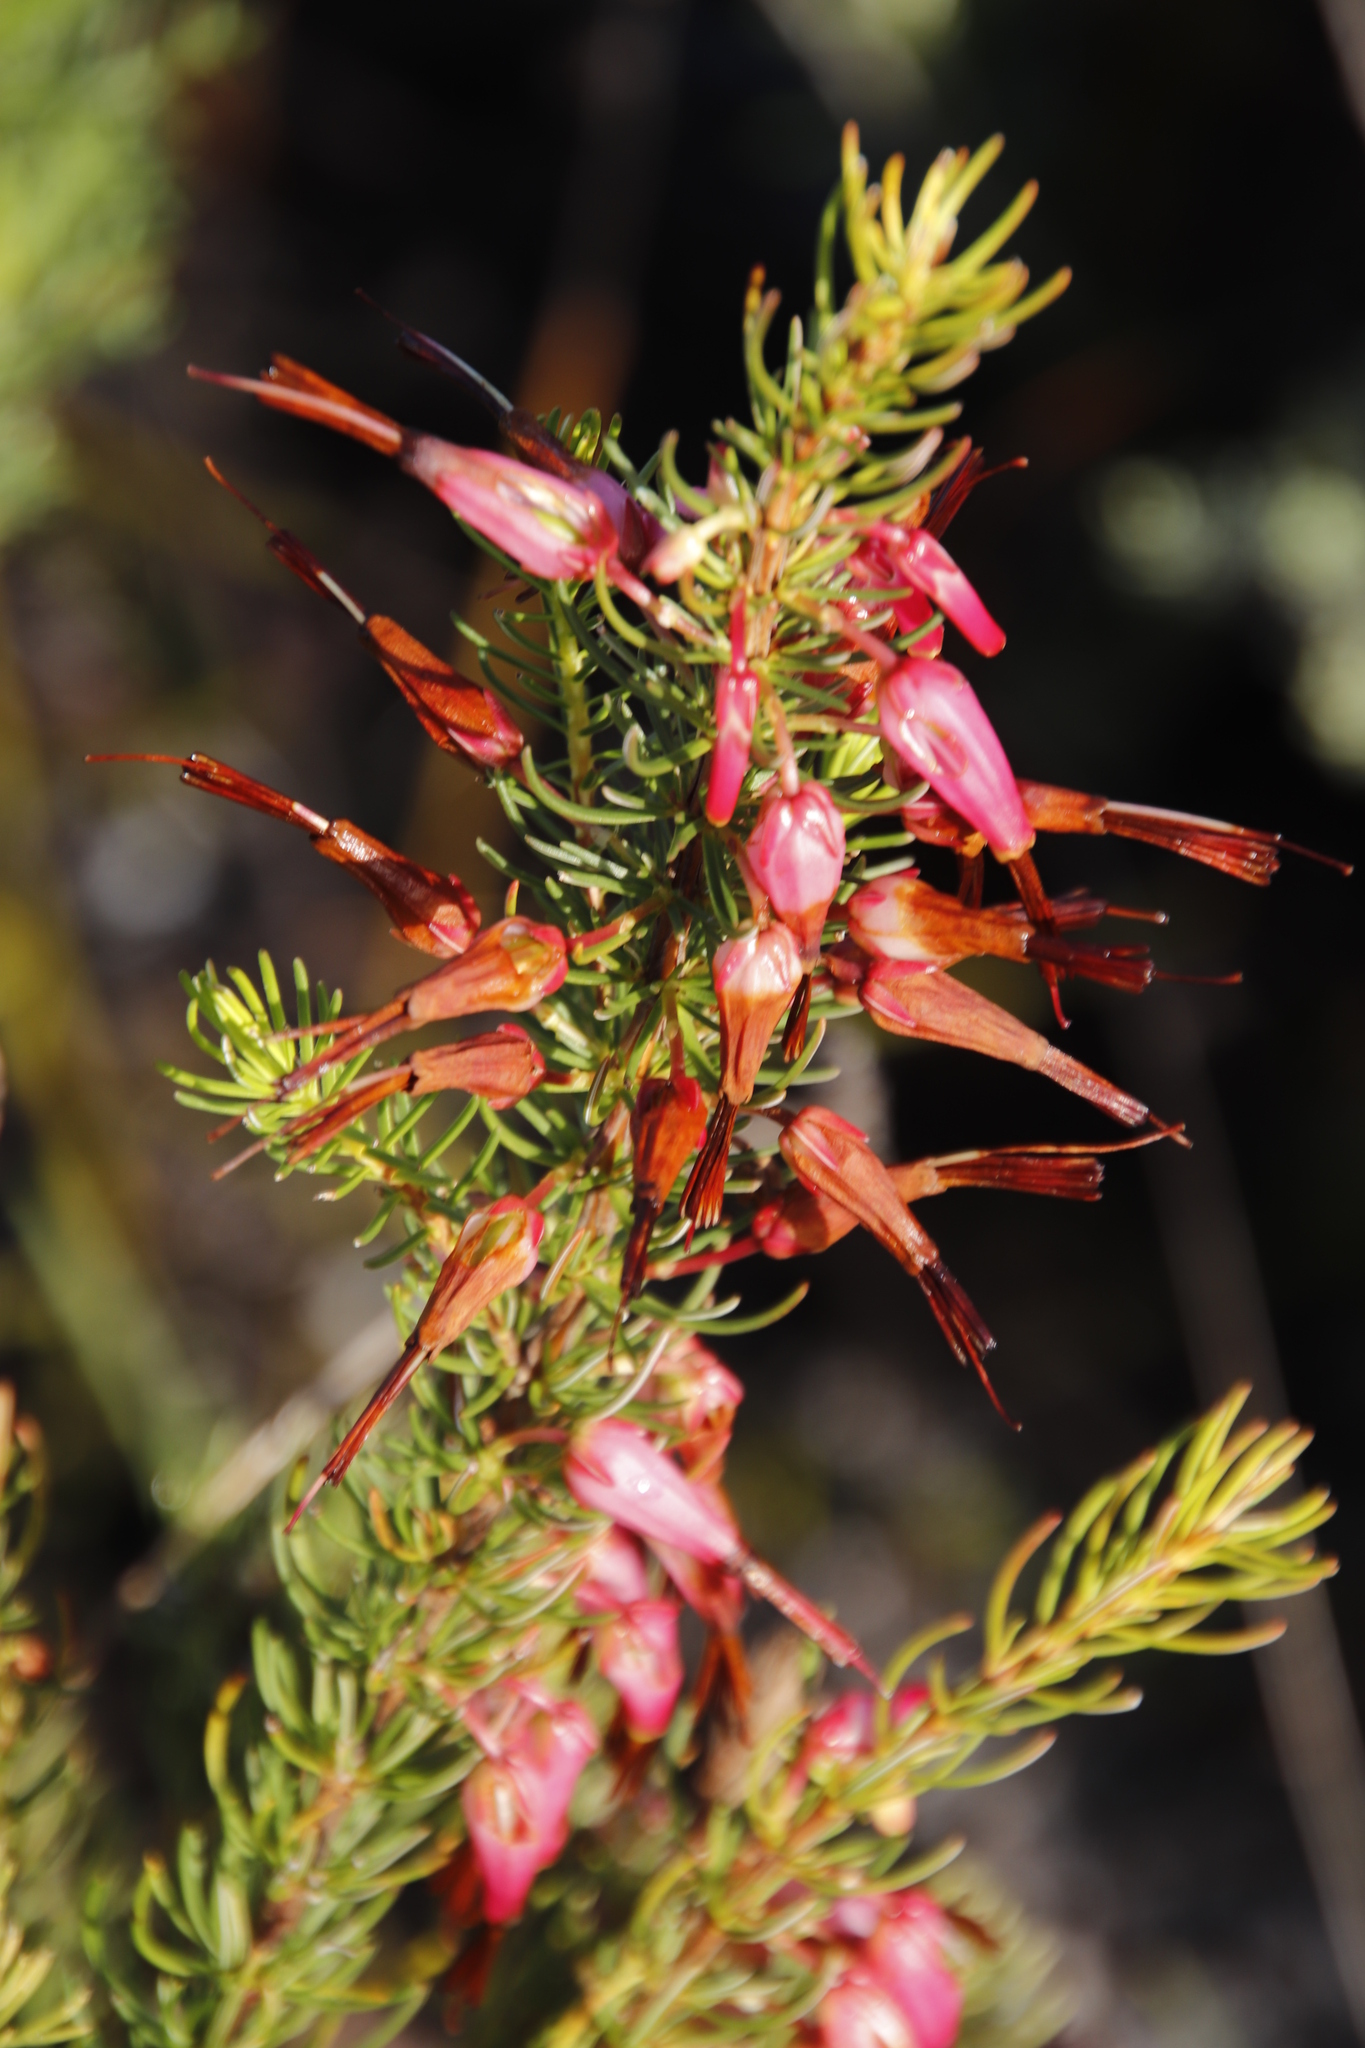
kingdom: Plantae
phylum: Tracheophyta
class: Magnoliopsida
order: Ericales
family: Ericaceae
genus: Erica
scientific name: Erica plukenetii
